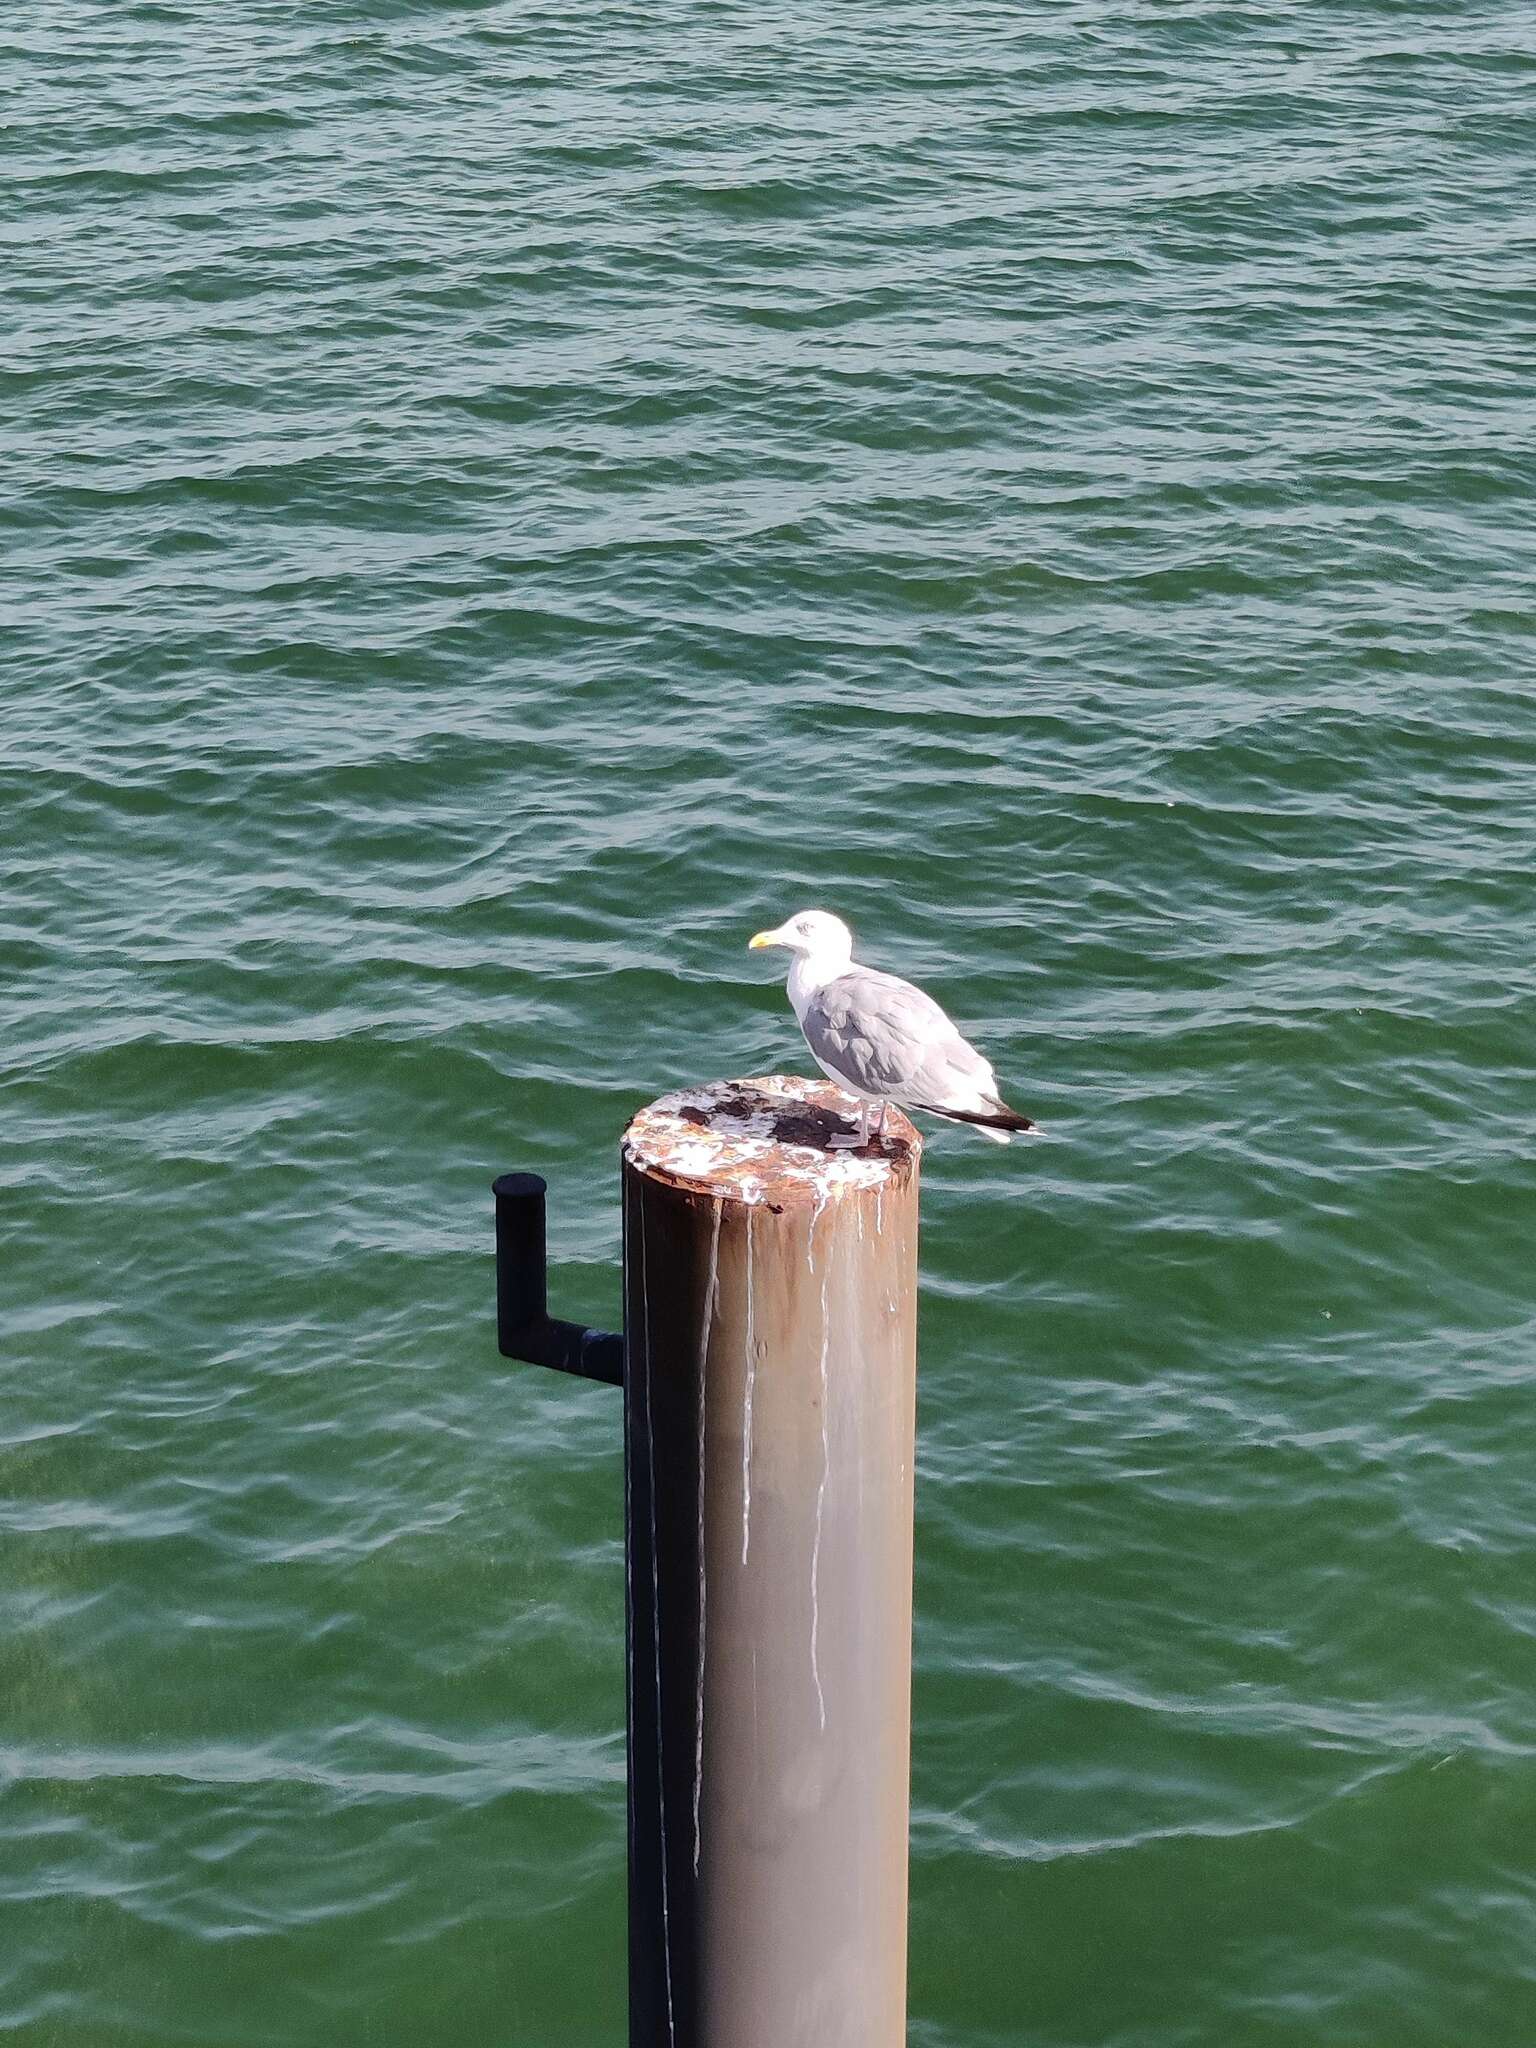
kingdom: Animalia
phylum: Chordata
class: Aves
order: Charadriiformes
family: Laridae
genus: Larus
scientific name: Larus argentatus
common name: Herring gull
